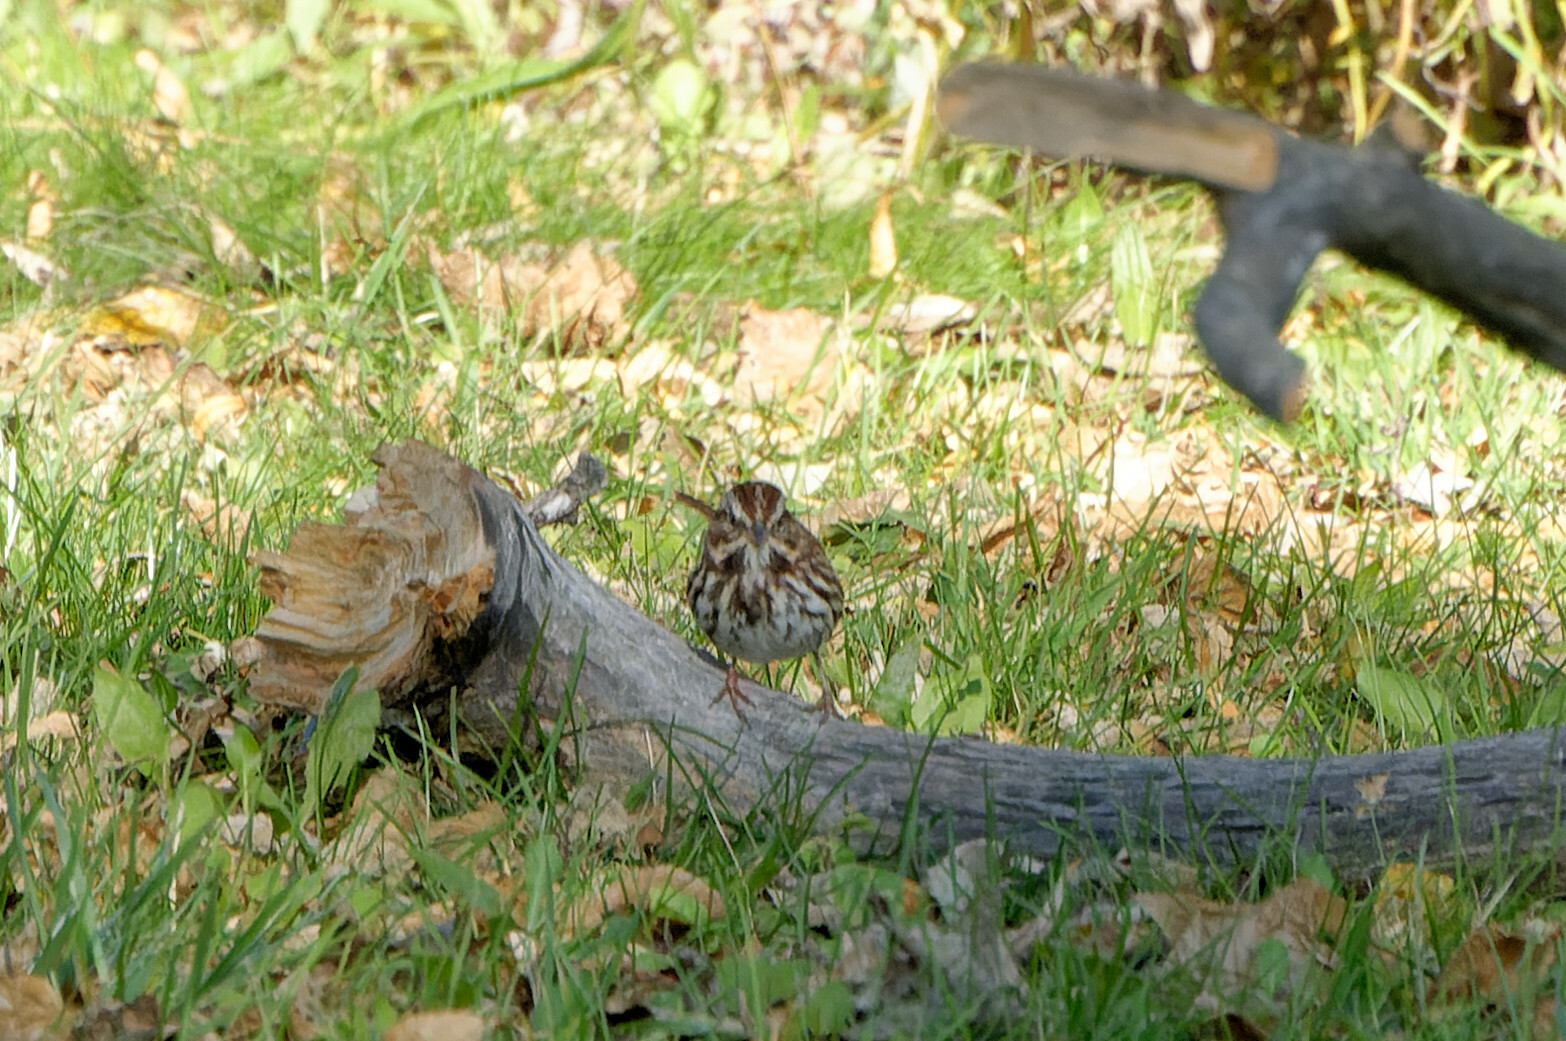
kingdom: Animalia
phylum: Chordata
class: Aves
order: Passeriformes
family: Passerellidae
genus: Melospiza
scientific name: Melospiza melodia
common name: Song sparrow
